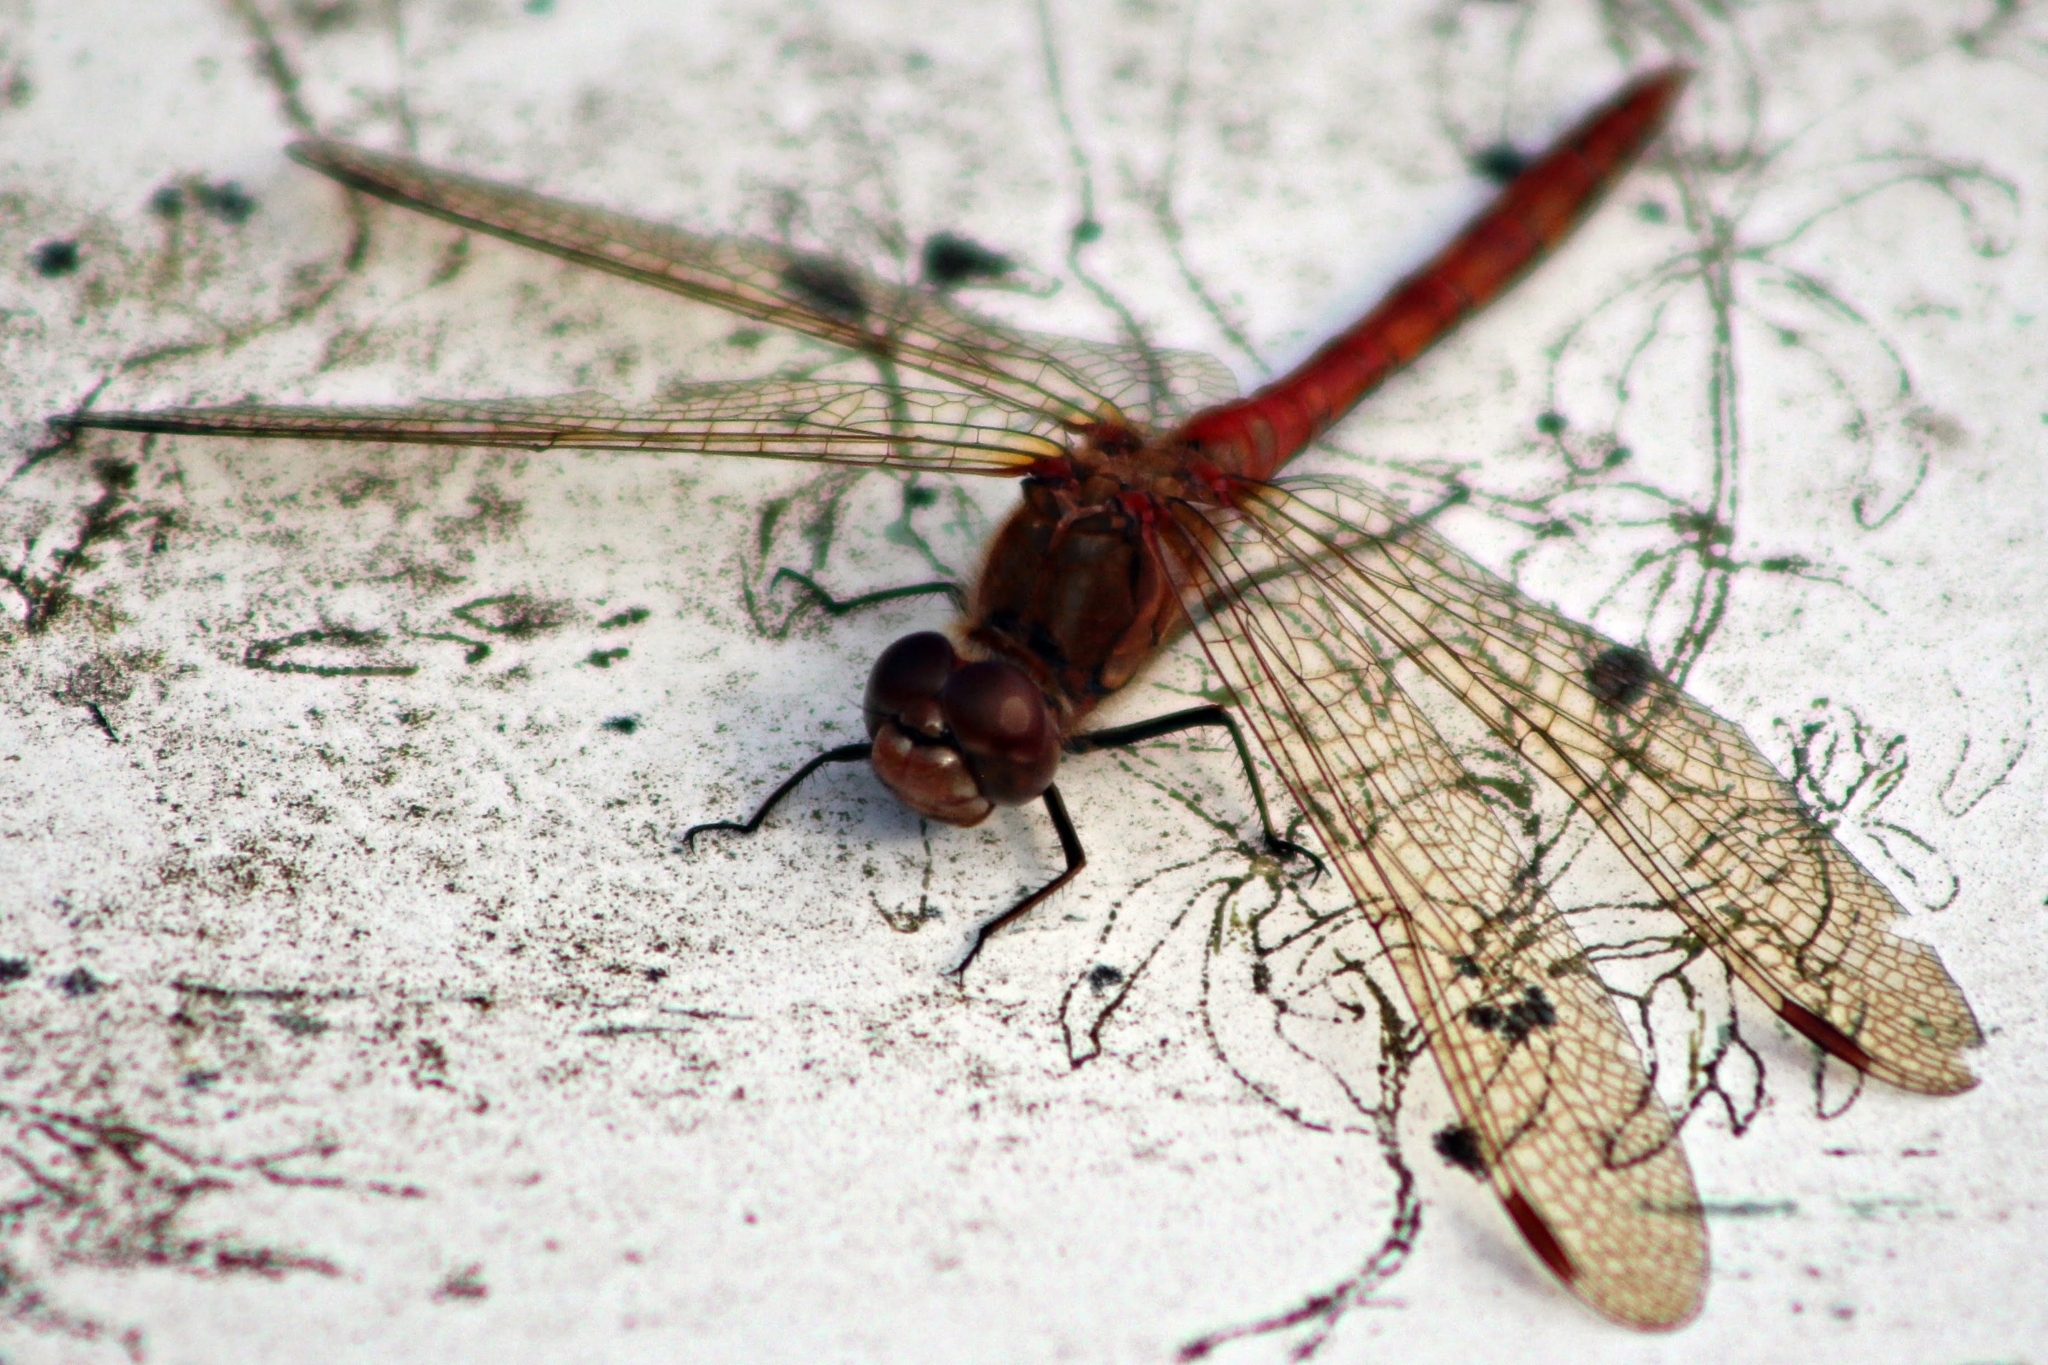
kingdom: Animalia
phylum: Arthropoda
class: Insecta
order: Odonata
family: Libellulidae
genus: Sympetrum
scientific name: Sympetrum striolatum
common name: Common darter
